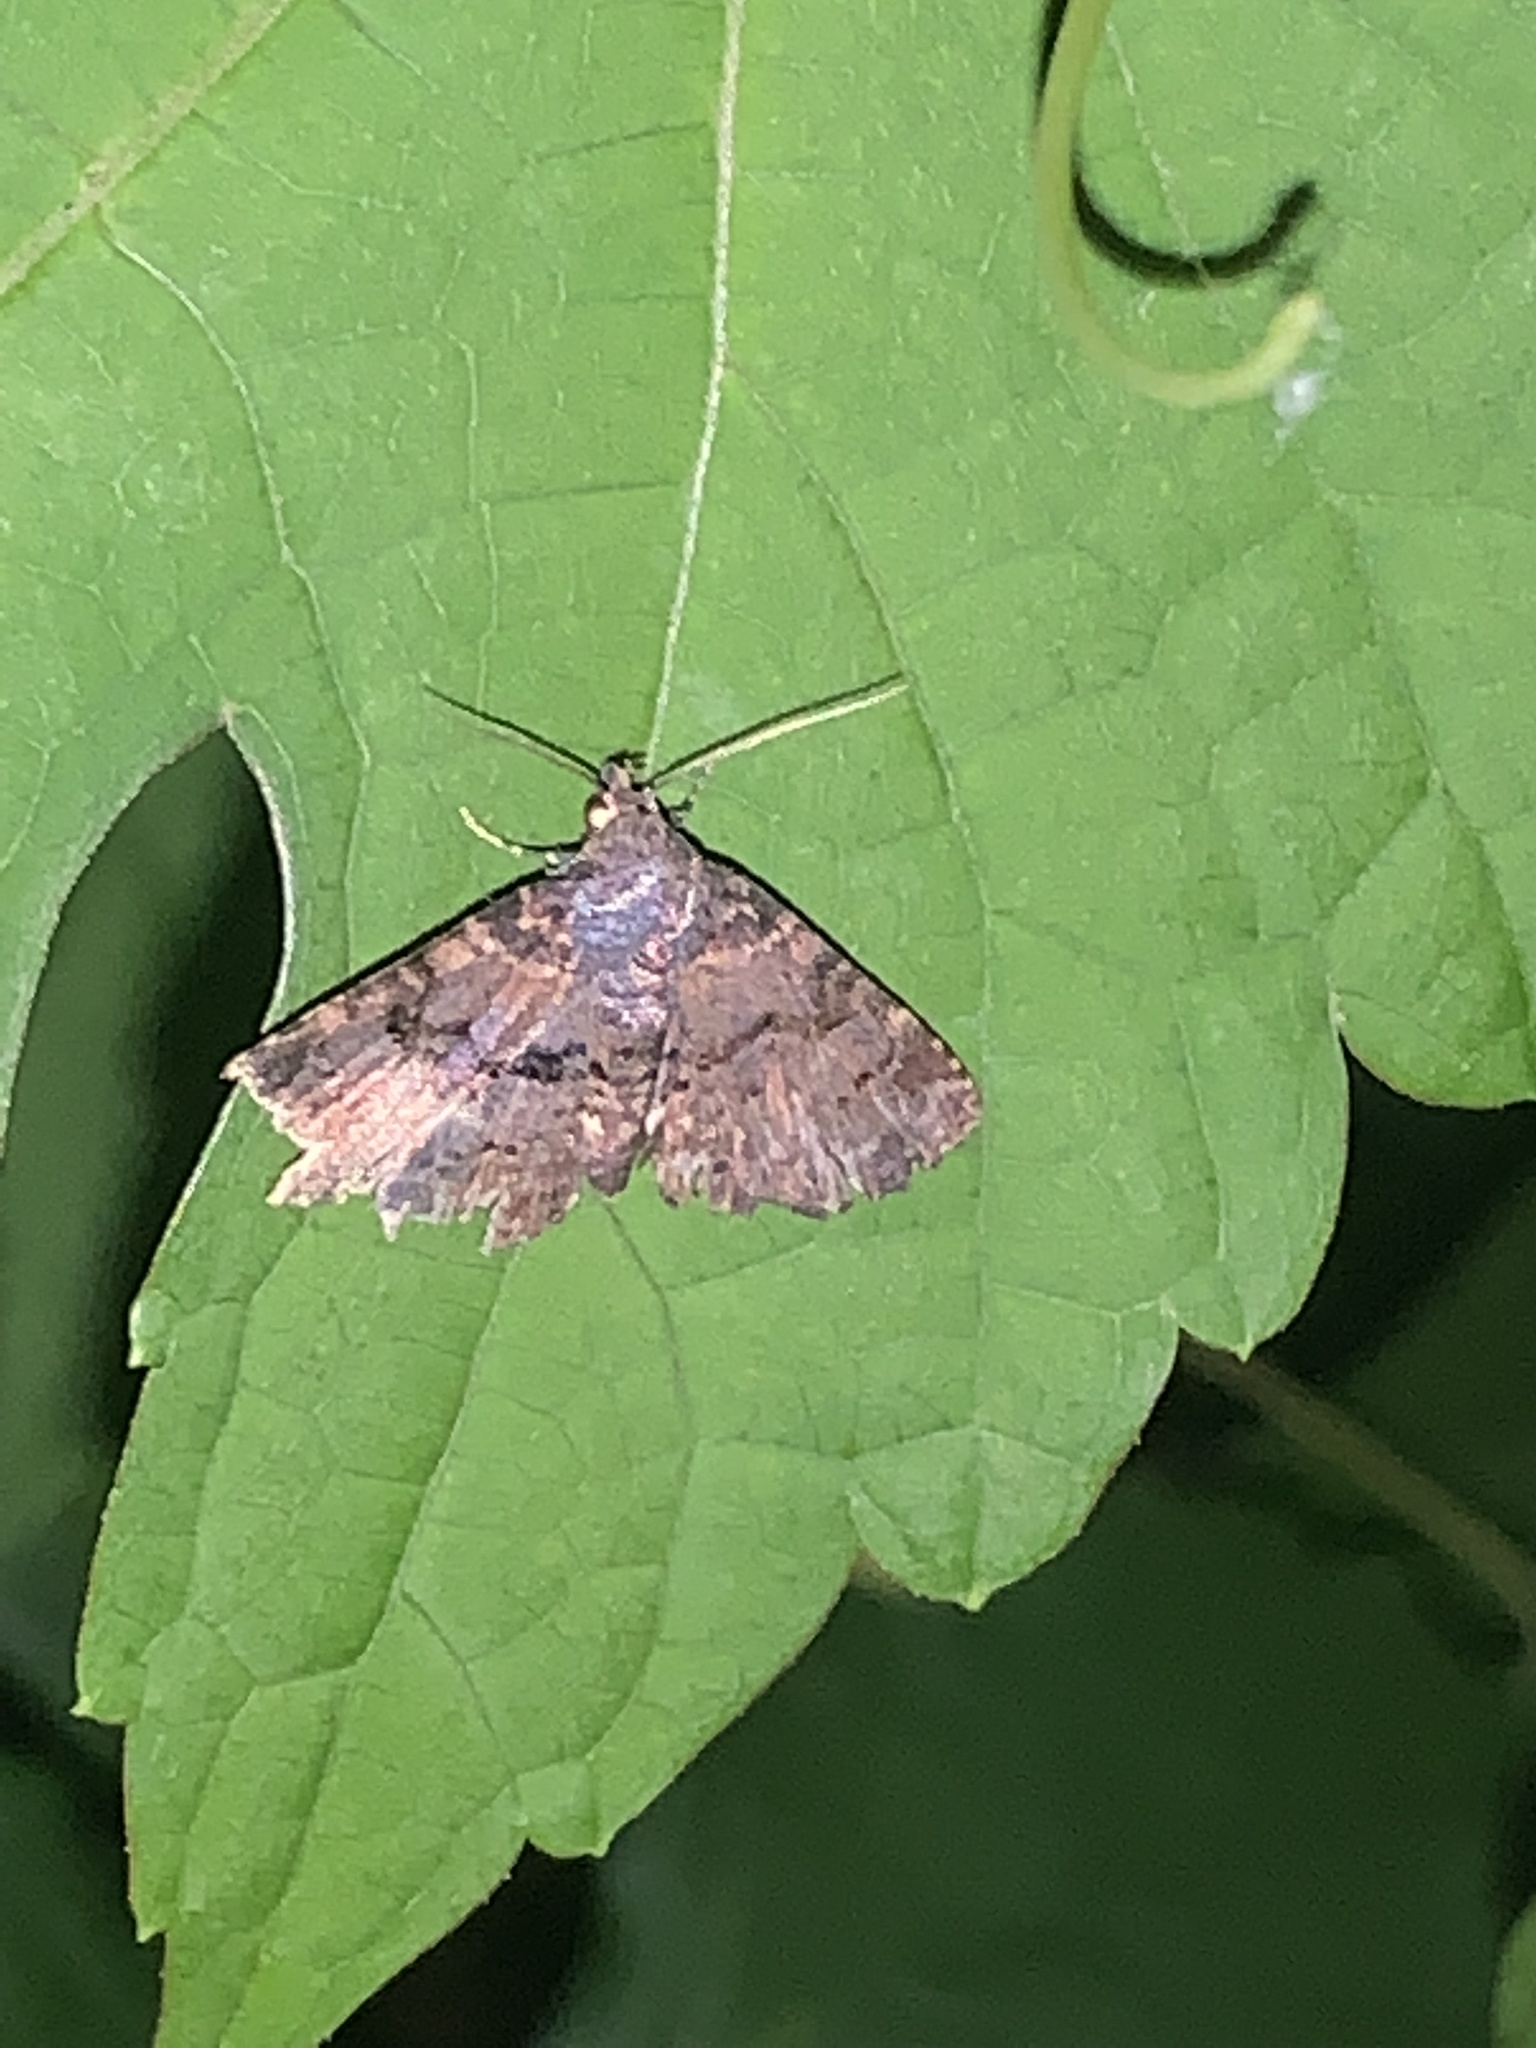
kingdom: Animalia
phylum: Arthropoda
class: Insecta
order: Lepidoptera
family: Erebidae
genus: Metalectra
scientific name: Metalectra quadrisignata
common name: Four-spotted fungus moth
